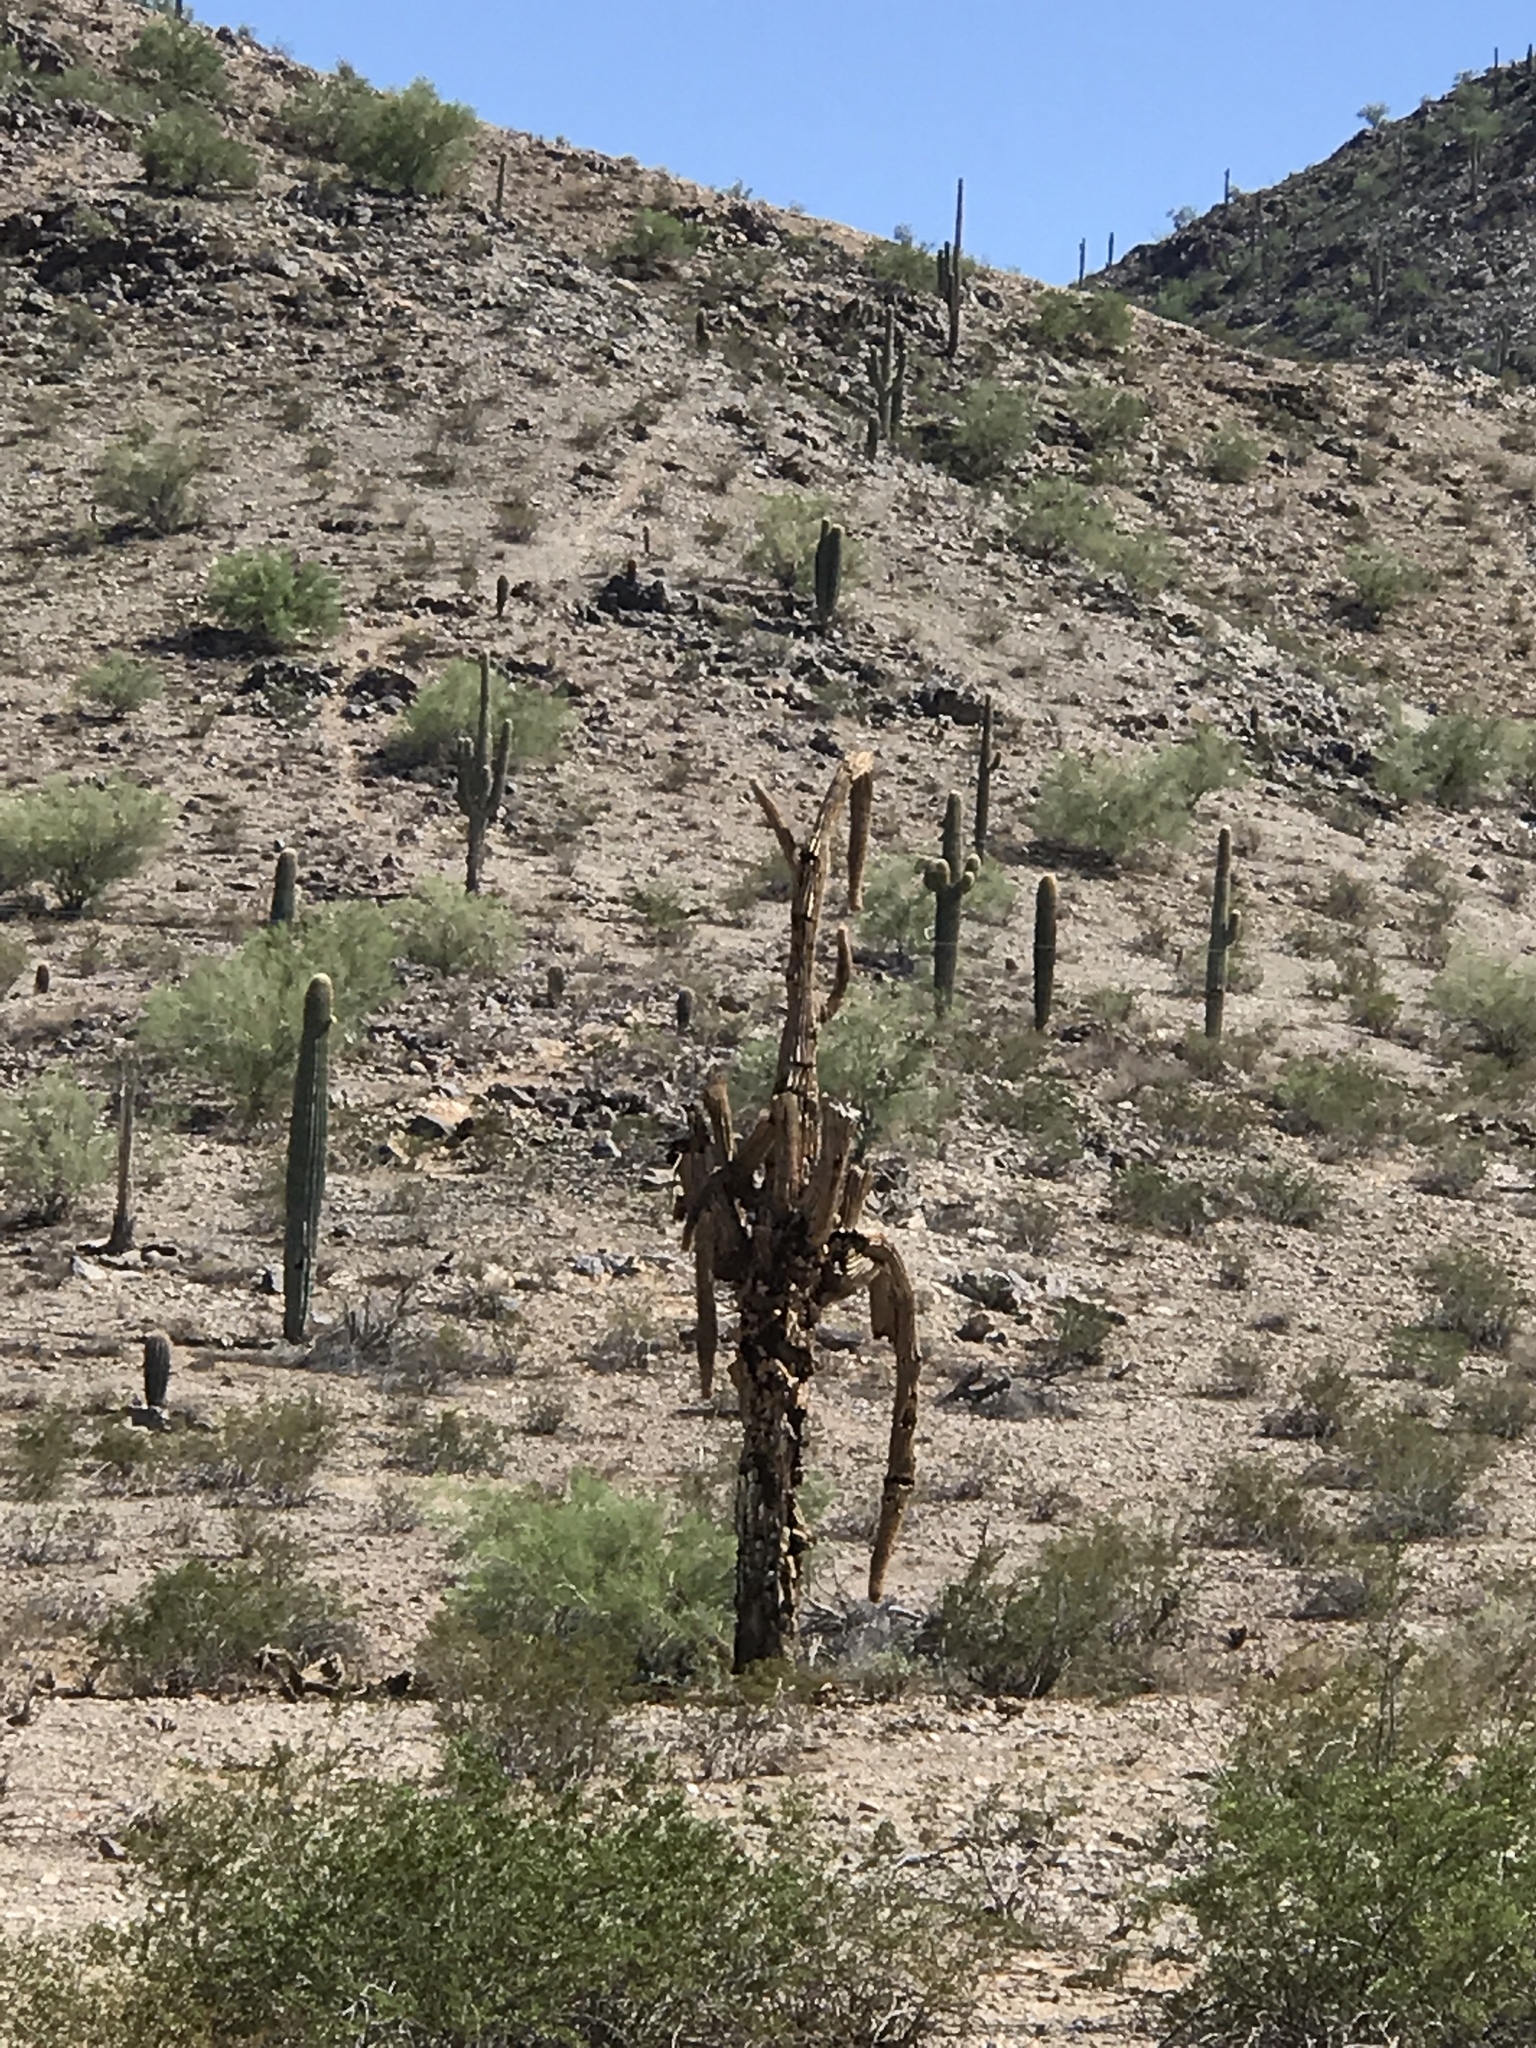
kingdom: Plantae
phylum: Tracheophyta
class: Magnoliopsida
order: Caryophyllales
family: Cactaceae
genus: Carnegiea
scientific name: Carnegiea gigantea
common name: Saguaro
